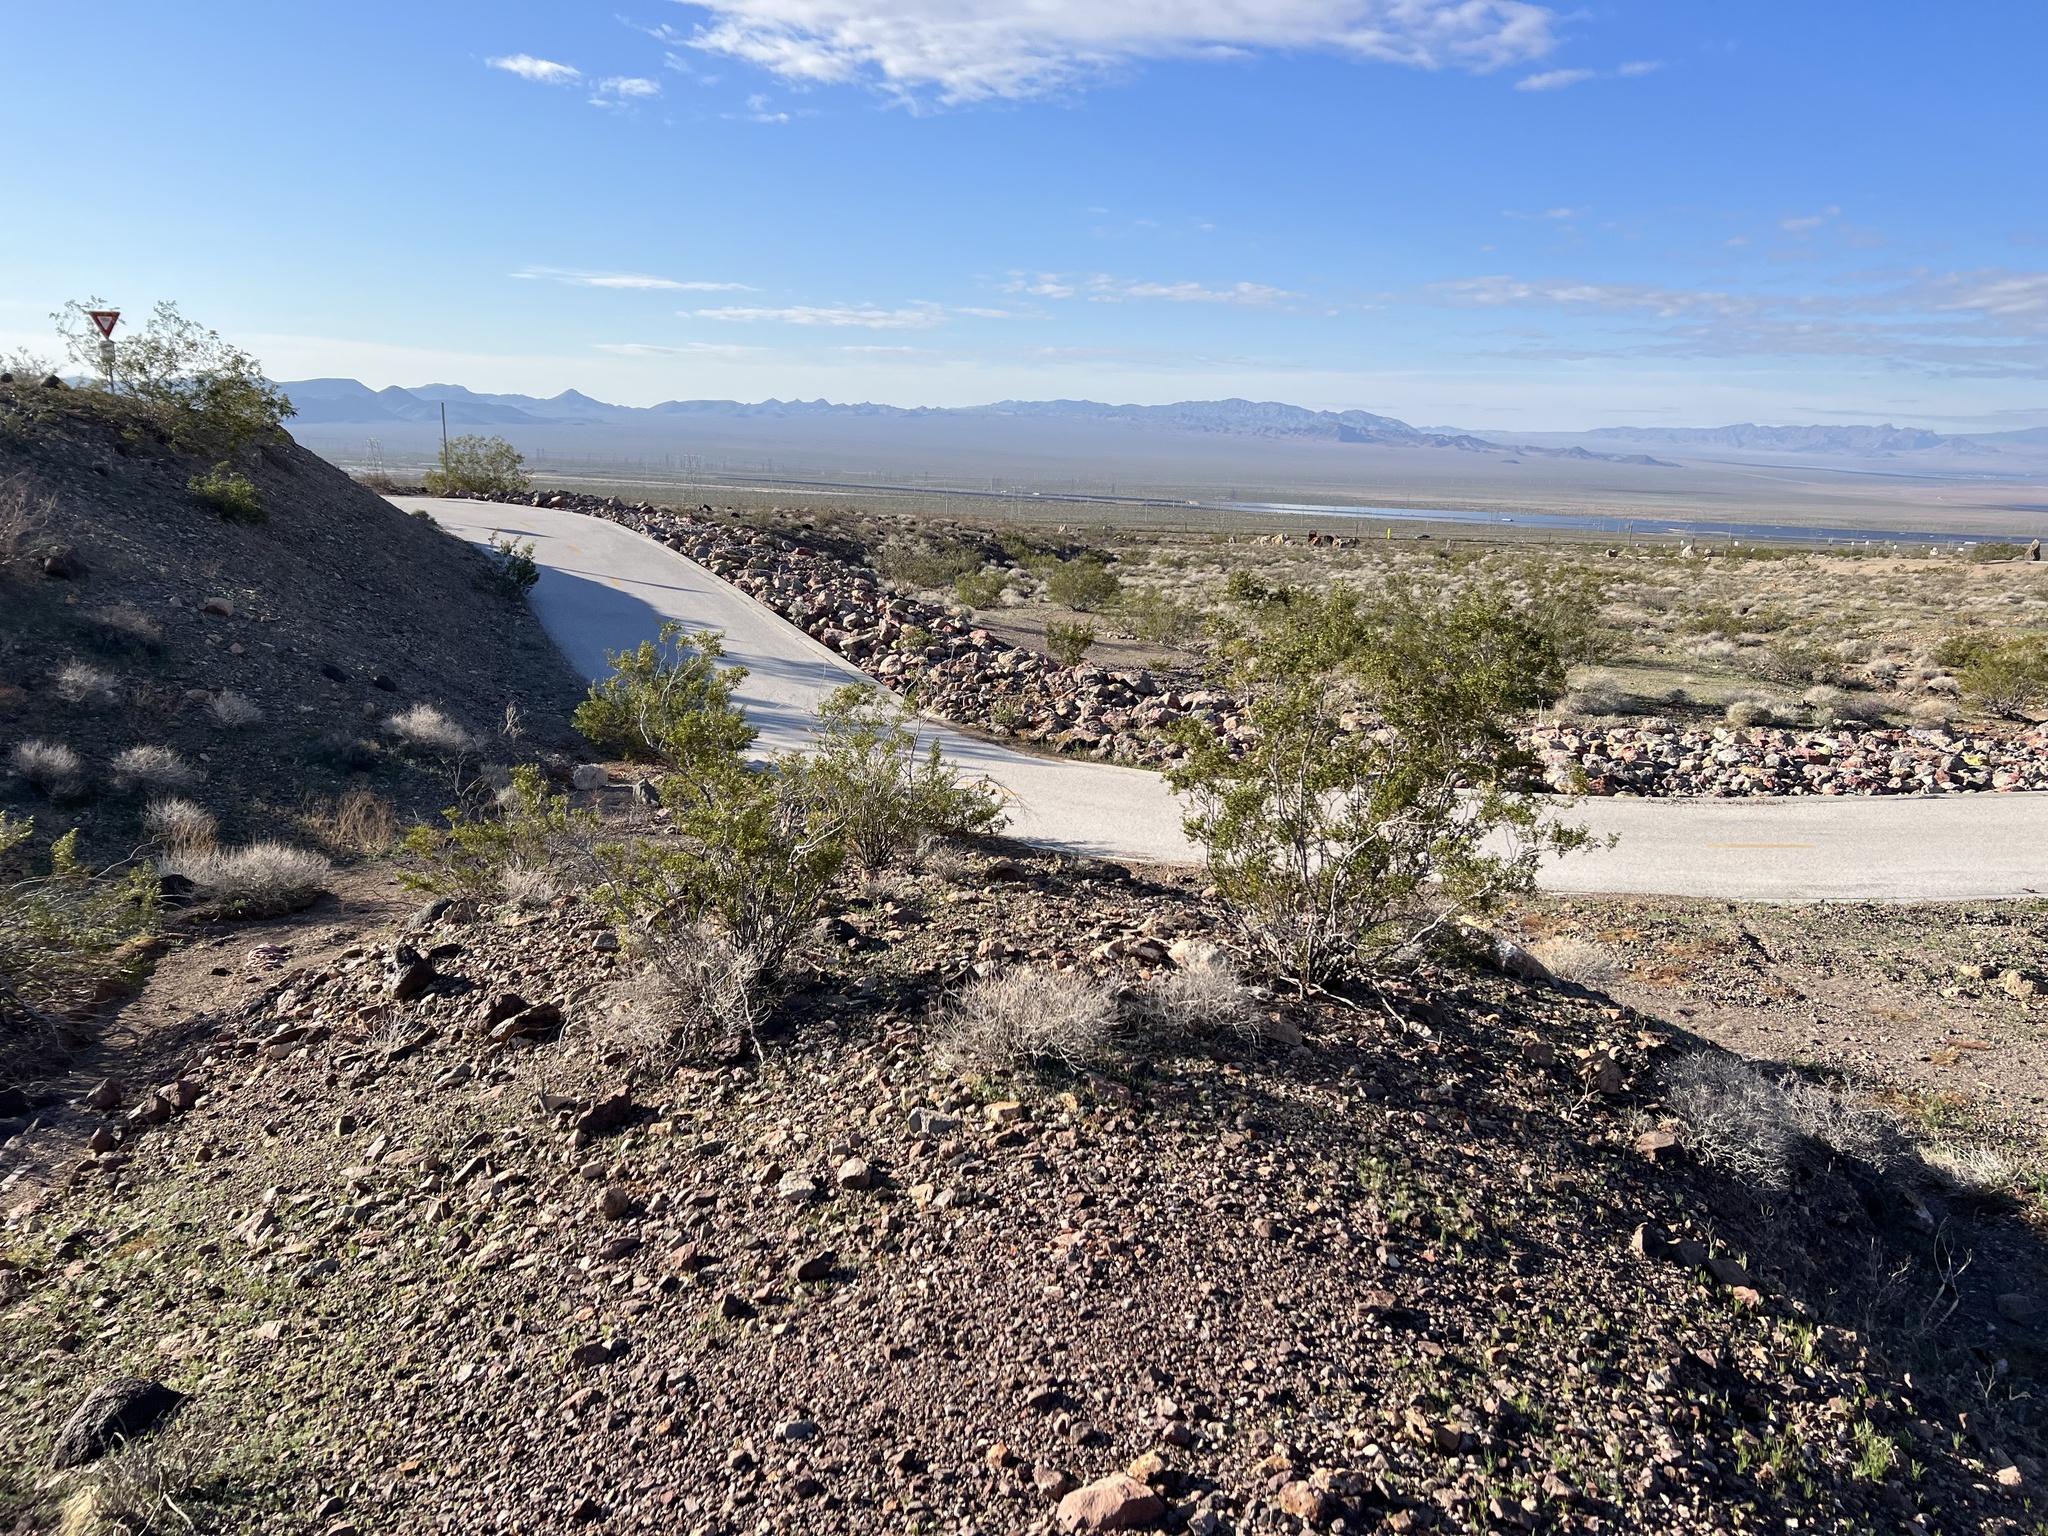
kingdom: Plantae
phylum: Tracheophyta
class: Magnoliopsida
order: Zygophyllales
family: Zygophyllaceae
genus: Larrea
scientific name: Larrea tridentata
